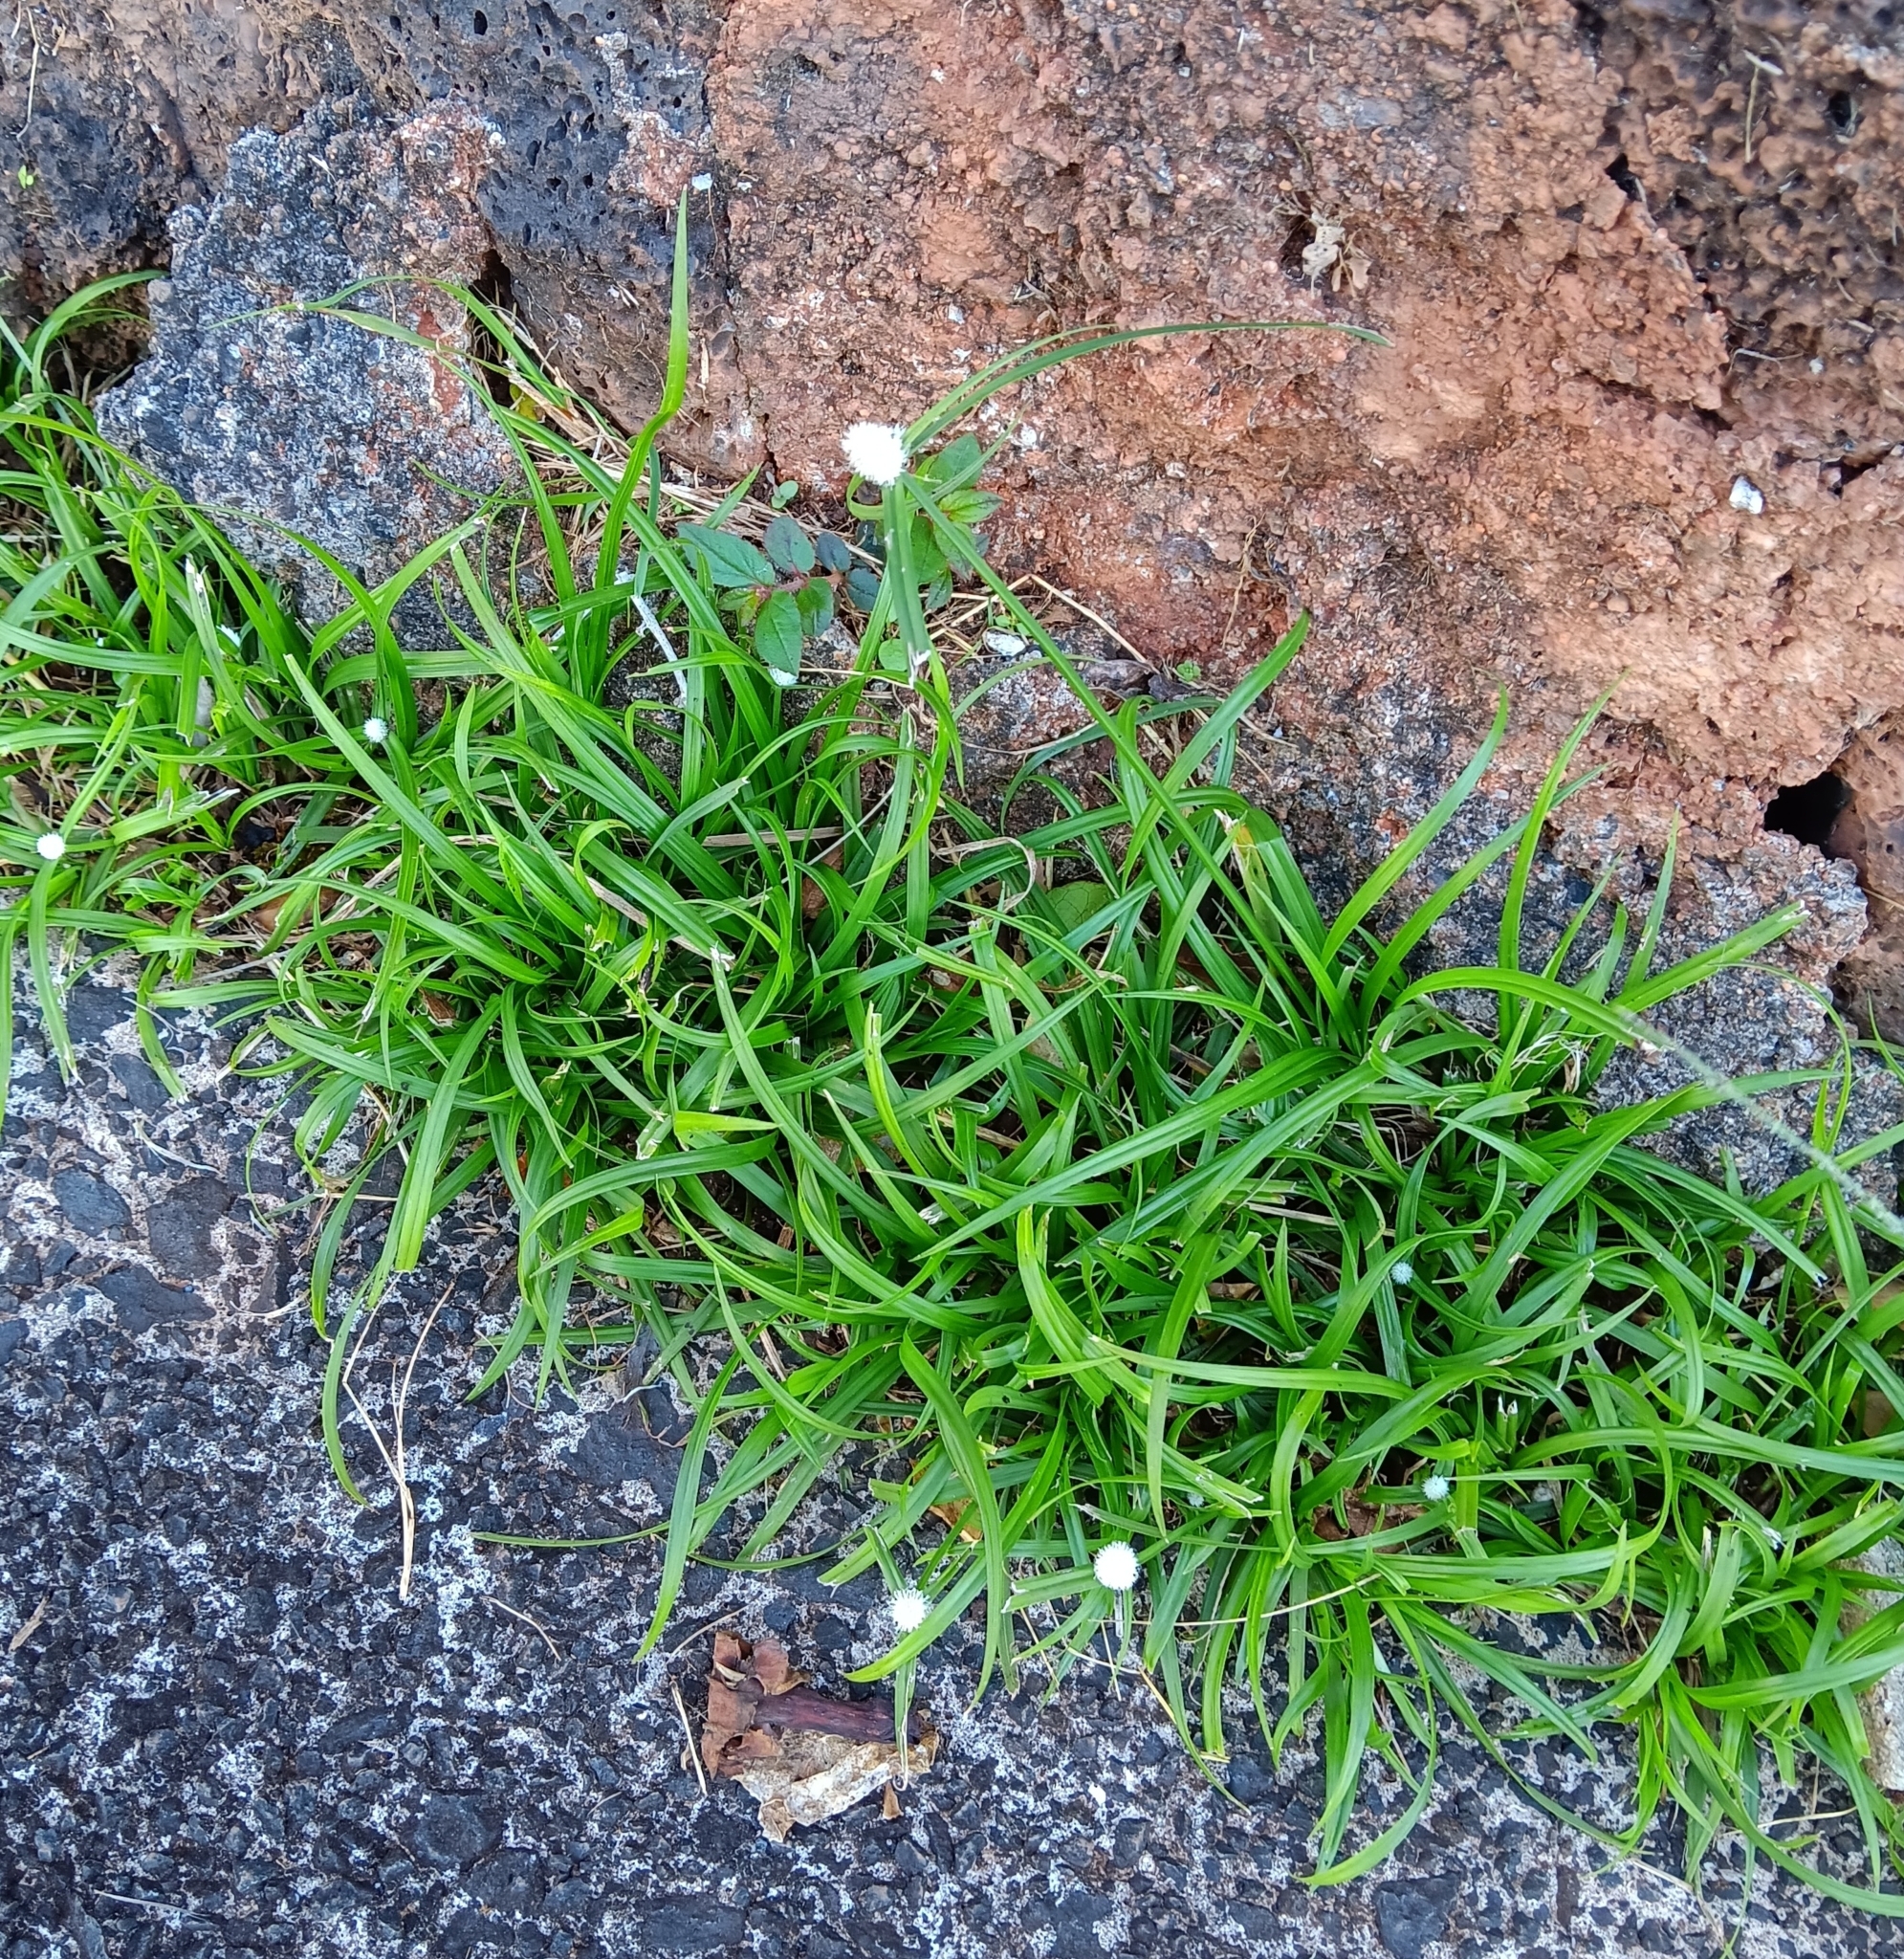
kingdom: Plantae
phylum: Tracheophyta
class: Liliopsida
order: Poales
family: Cyperaceae
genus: Cyperus
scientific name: Cyperus mindorensis
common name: Flatsedge
